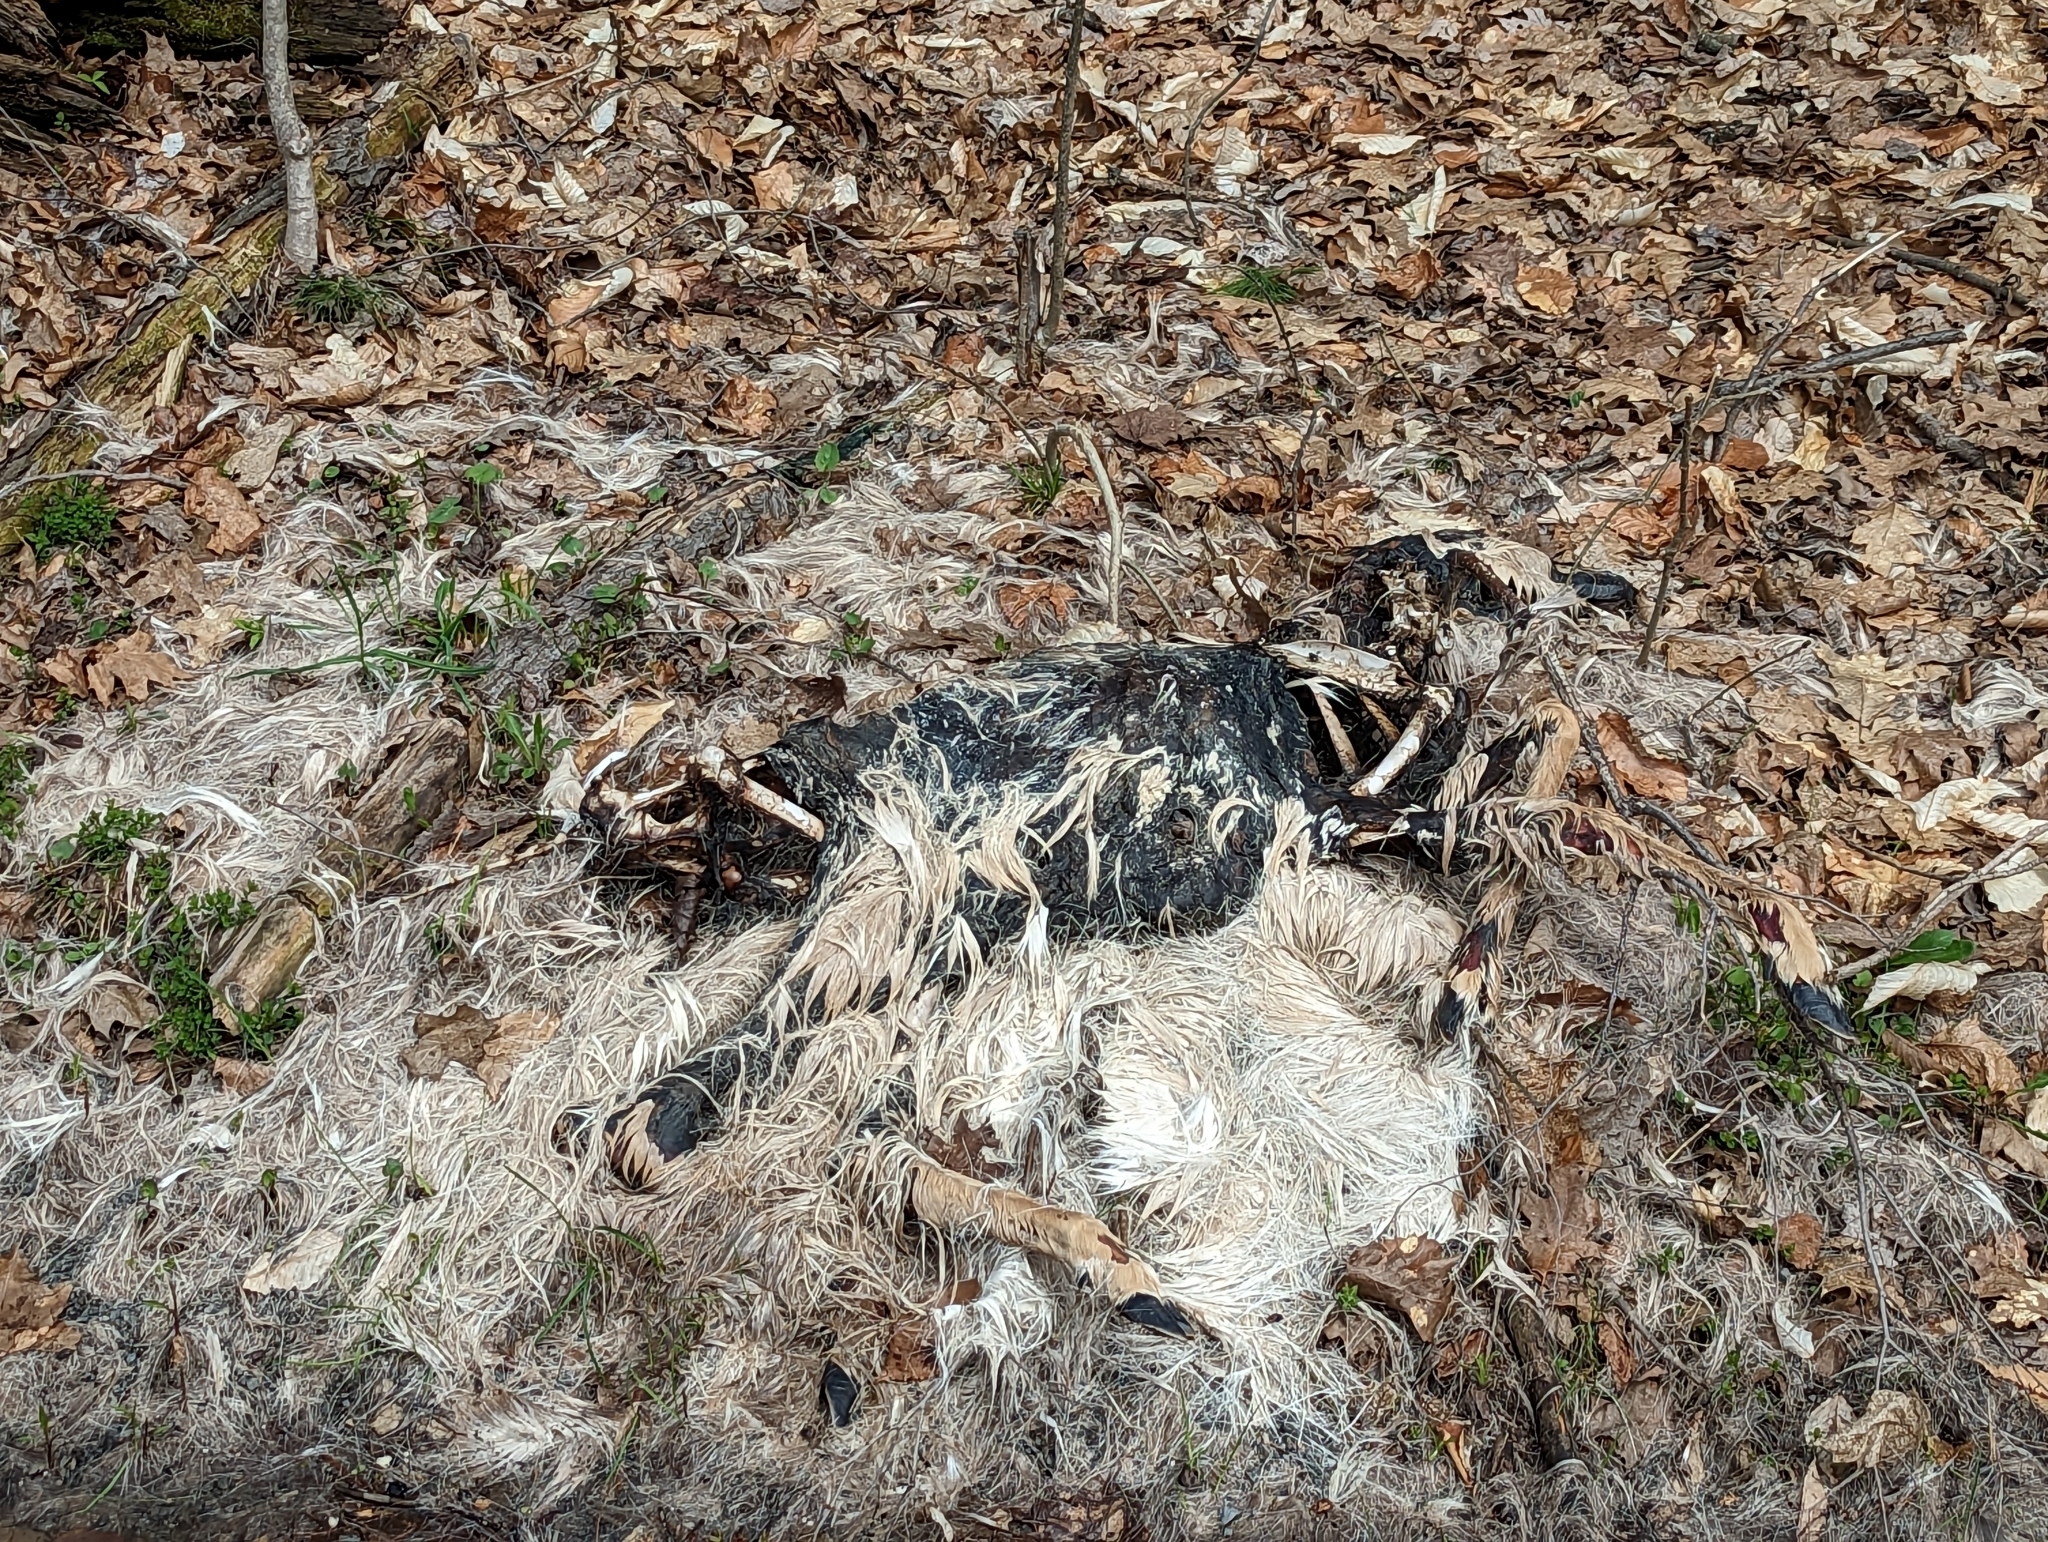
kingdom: Animalia
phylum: Chordata
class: Mammalia
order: Artiodactyla
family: Cervidae
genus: Odocoileus
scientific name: Odocoileus virginianus
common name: White-tailed deer
